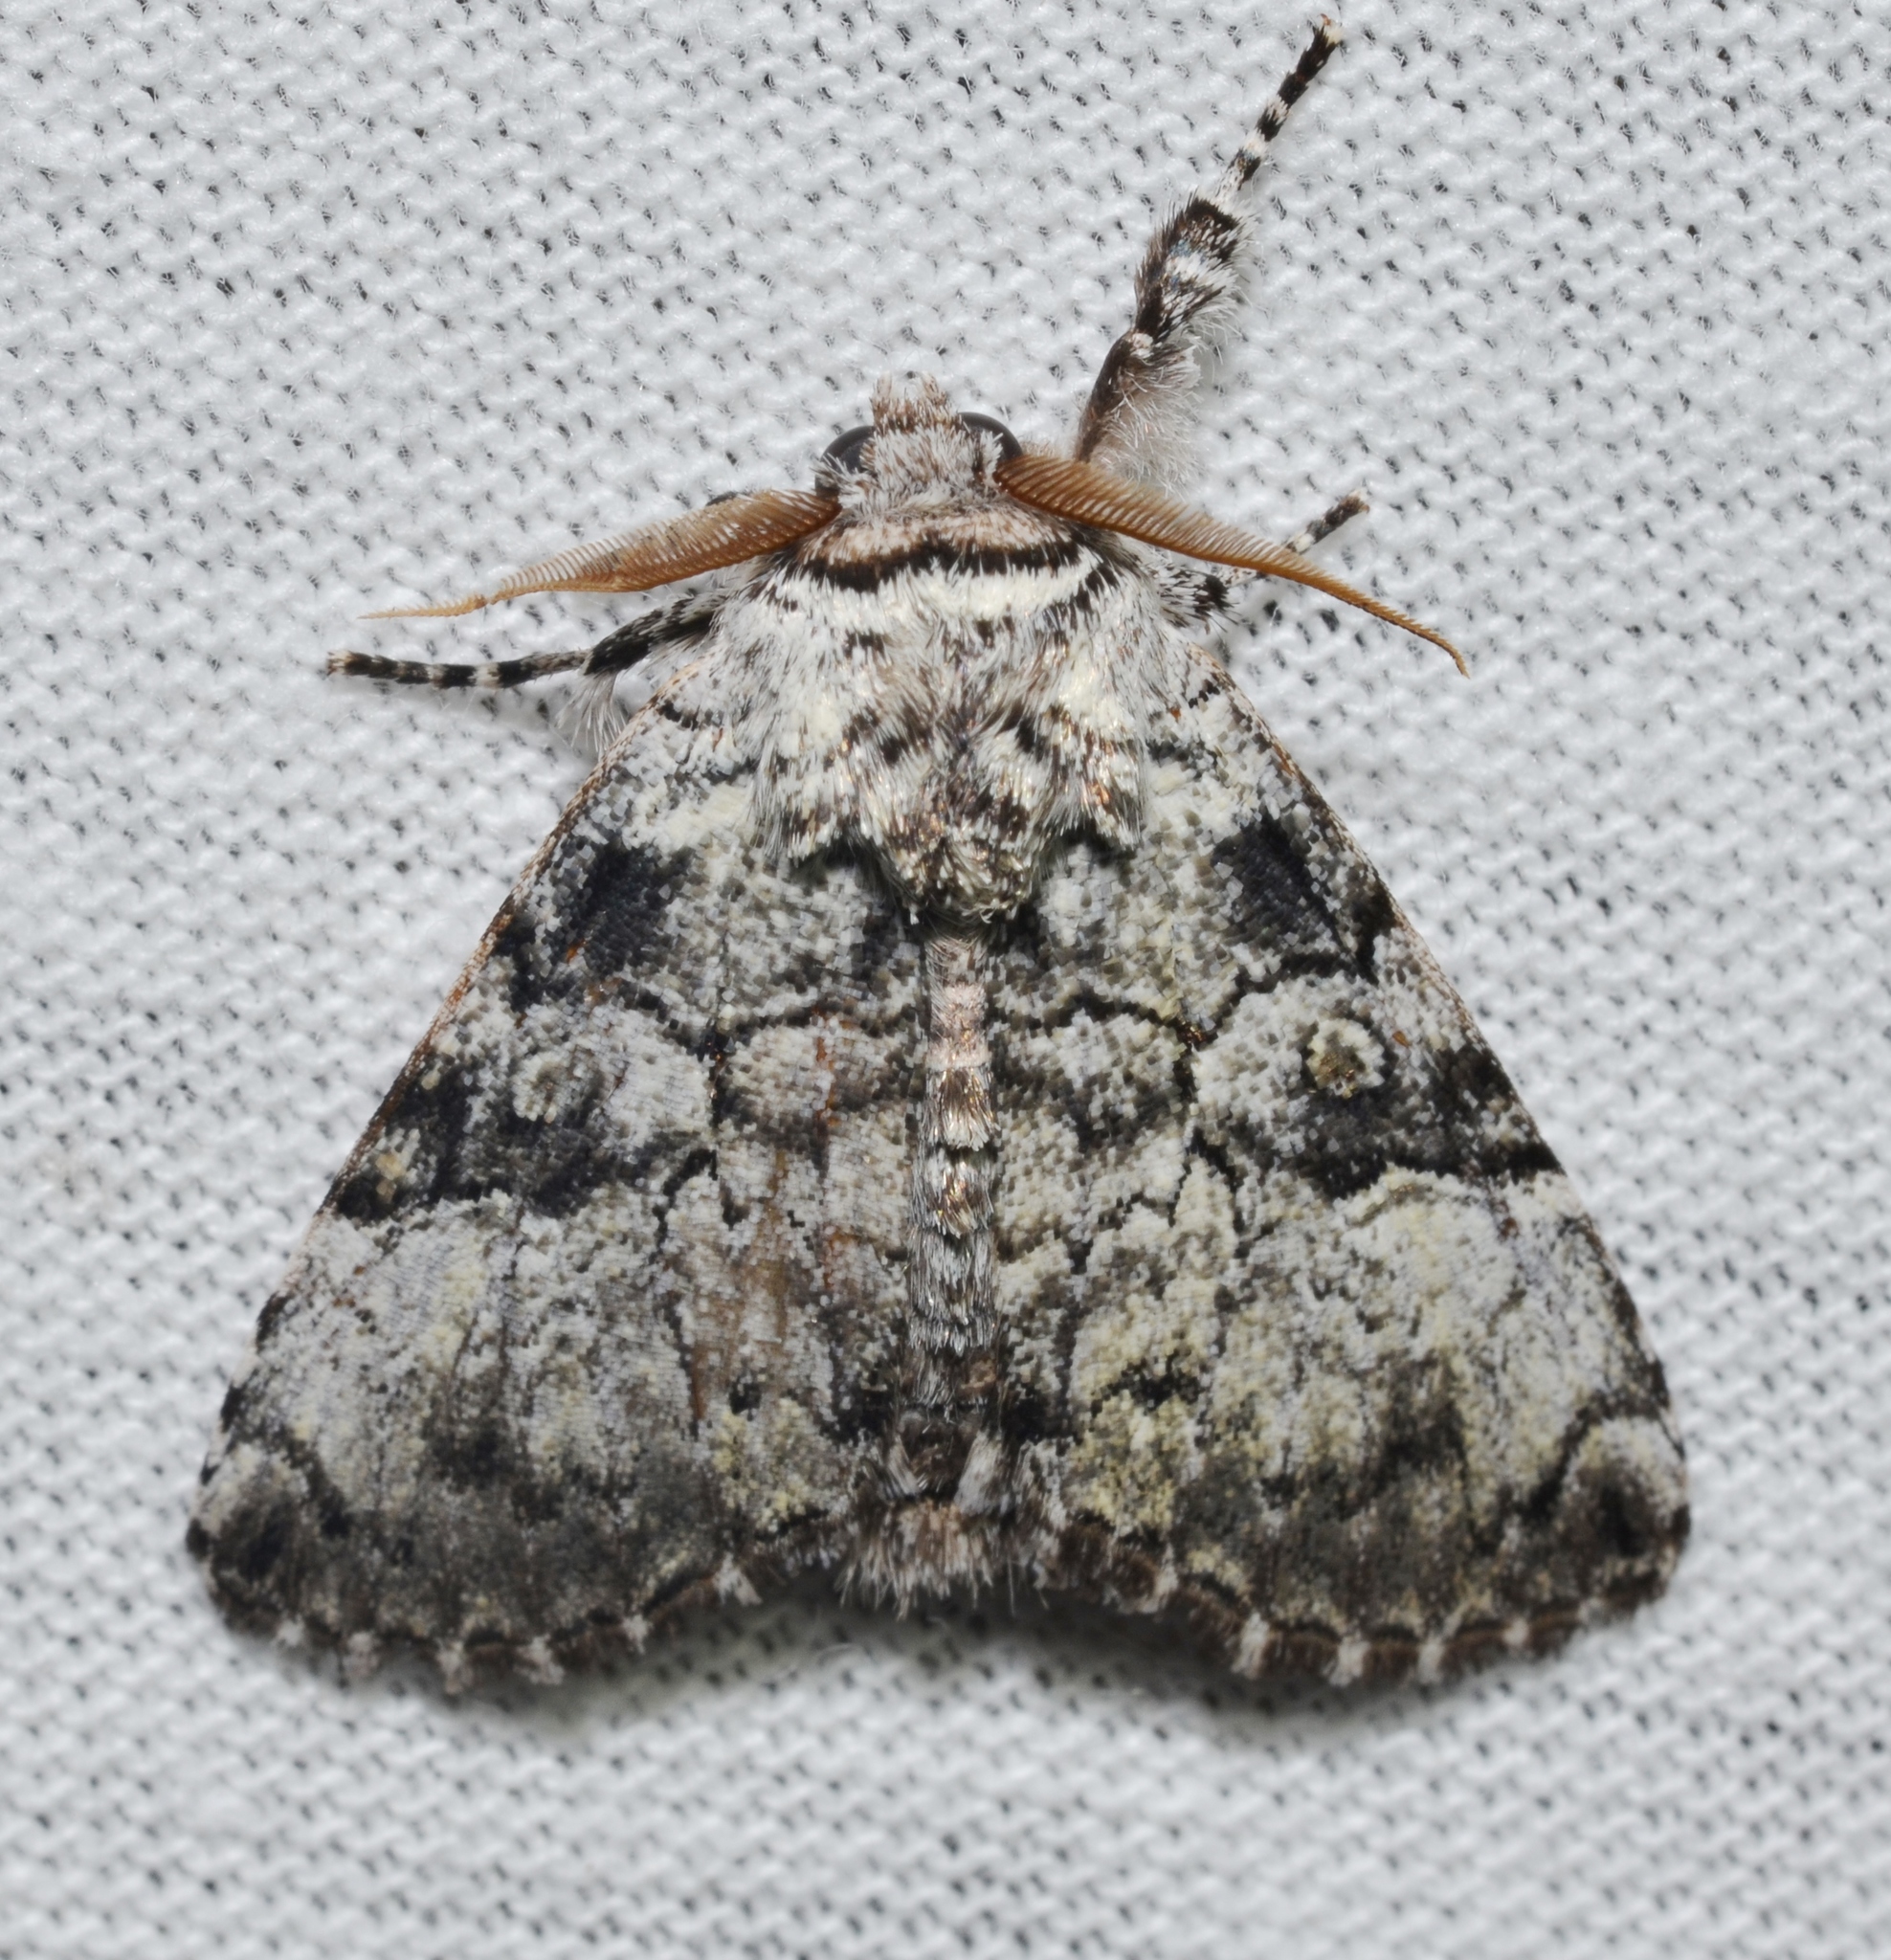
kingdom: Animalia
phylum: Arthropoda
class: Insecta
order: Lepidoptera
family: Noctuidae
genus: Charadra
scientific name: Charadra deridens
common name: Marbled tuffet
